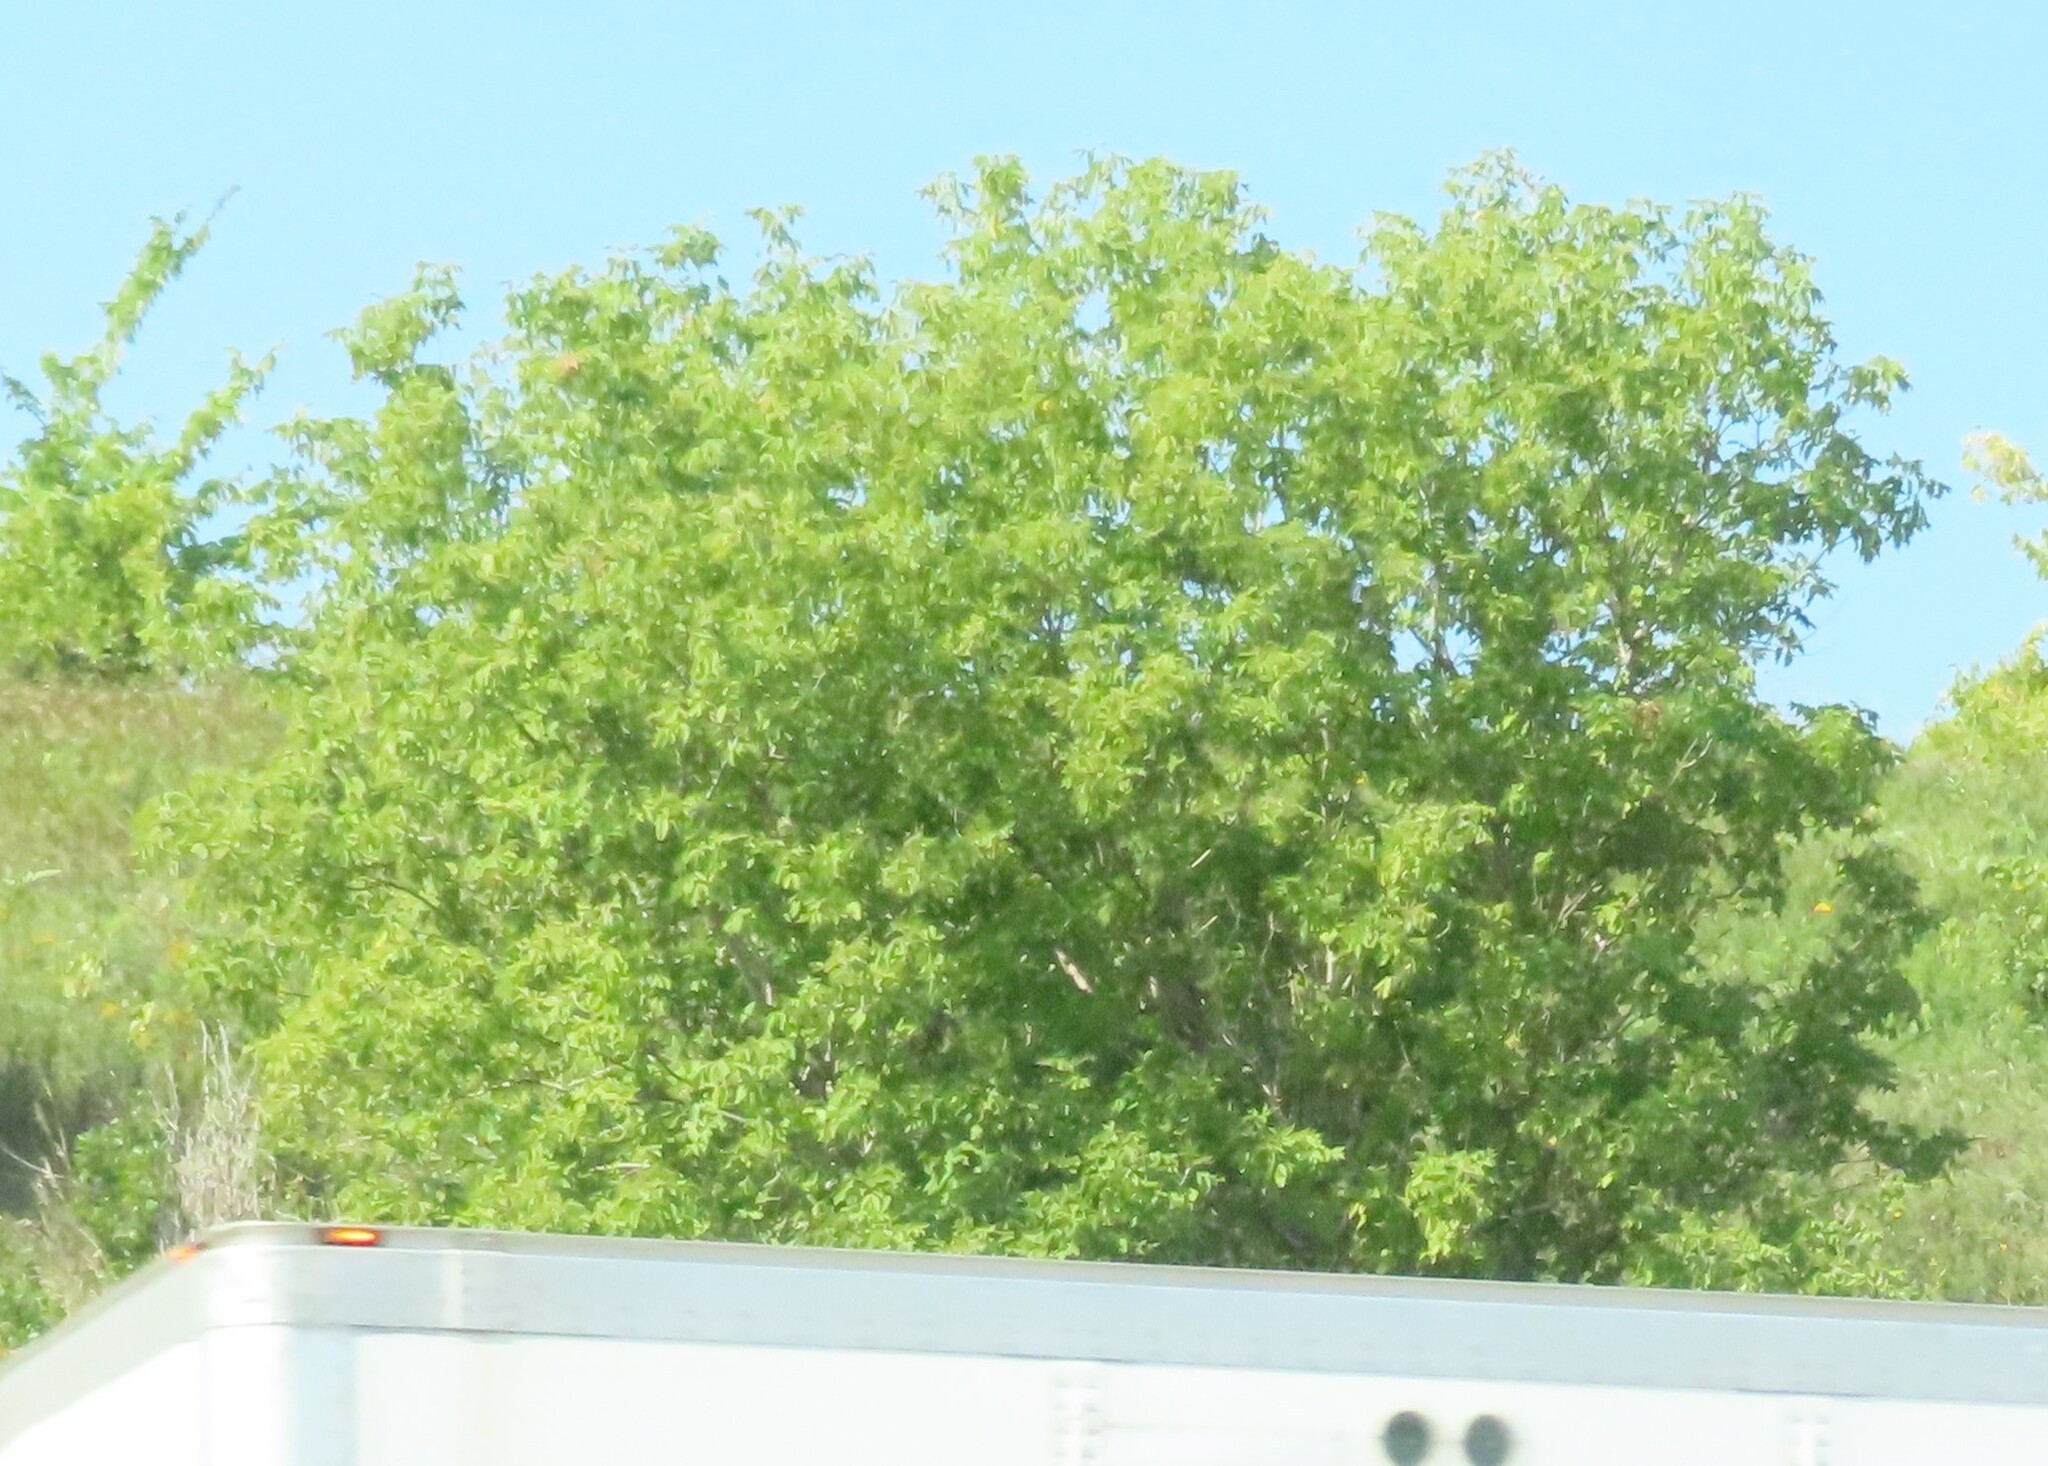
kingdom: Plantae
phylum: Tracheophyta
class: Magnoliopsida
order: Sapindales
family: Sapindaceae
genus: Acer
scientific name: Acer negundo
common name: Ashleaf maple
